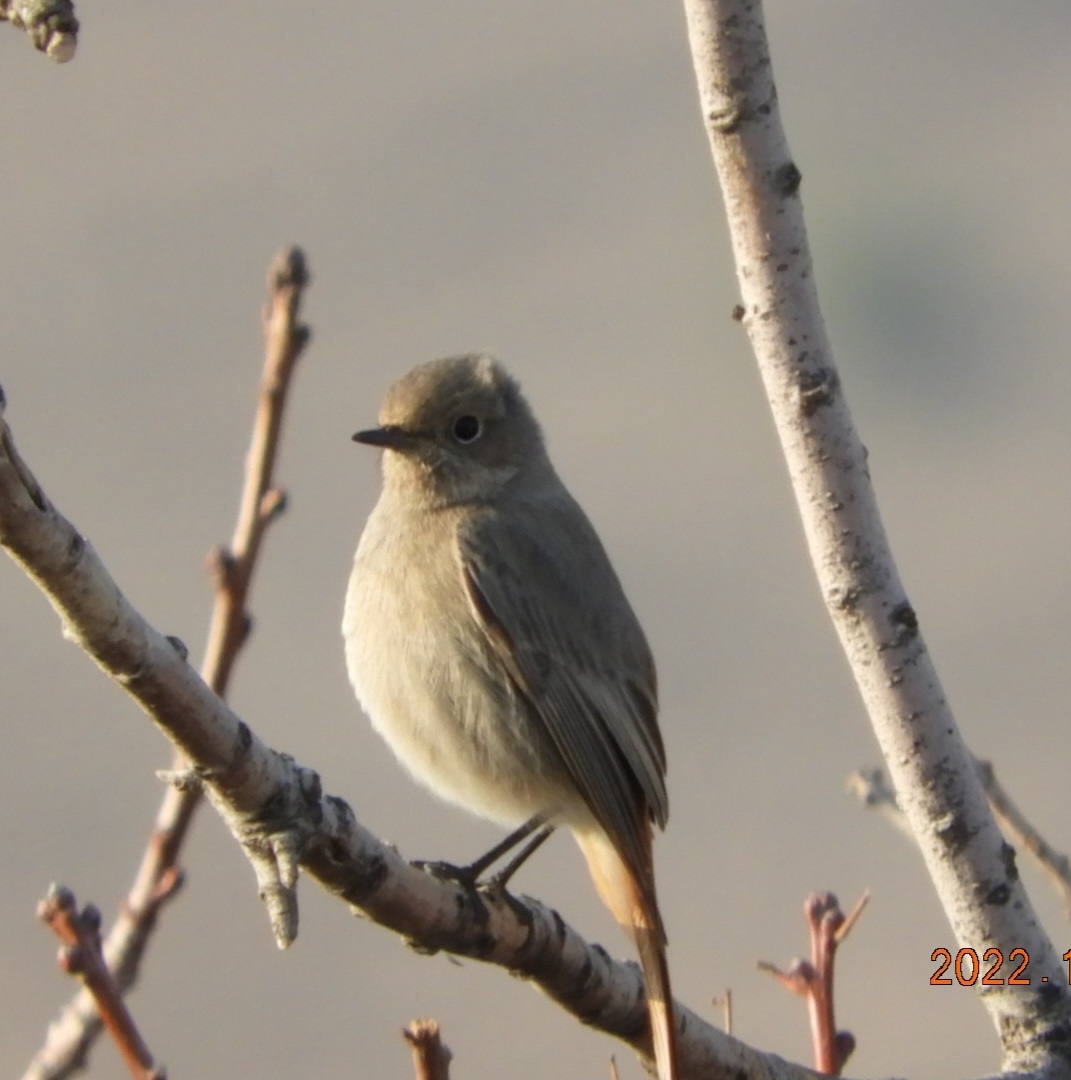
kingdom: Animalia
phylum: Chordata
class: Aves
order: Passeriformes
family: Muscicapidae
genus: Phoenicurus
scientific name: Phoenicurus ochruros
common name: Black redstart
